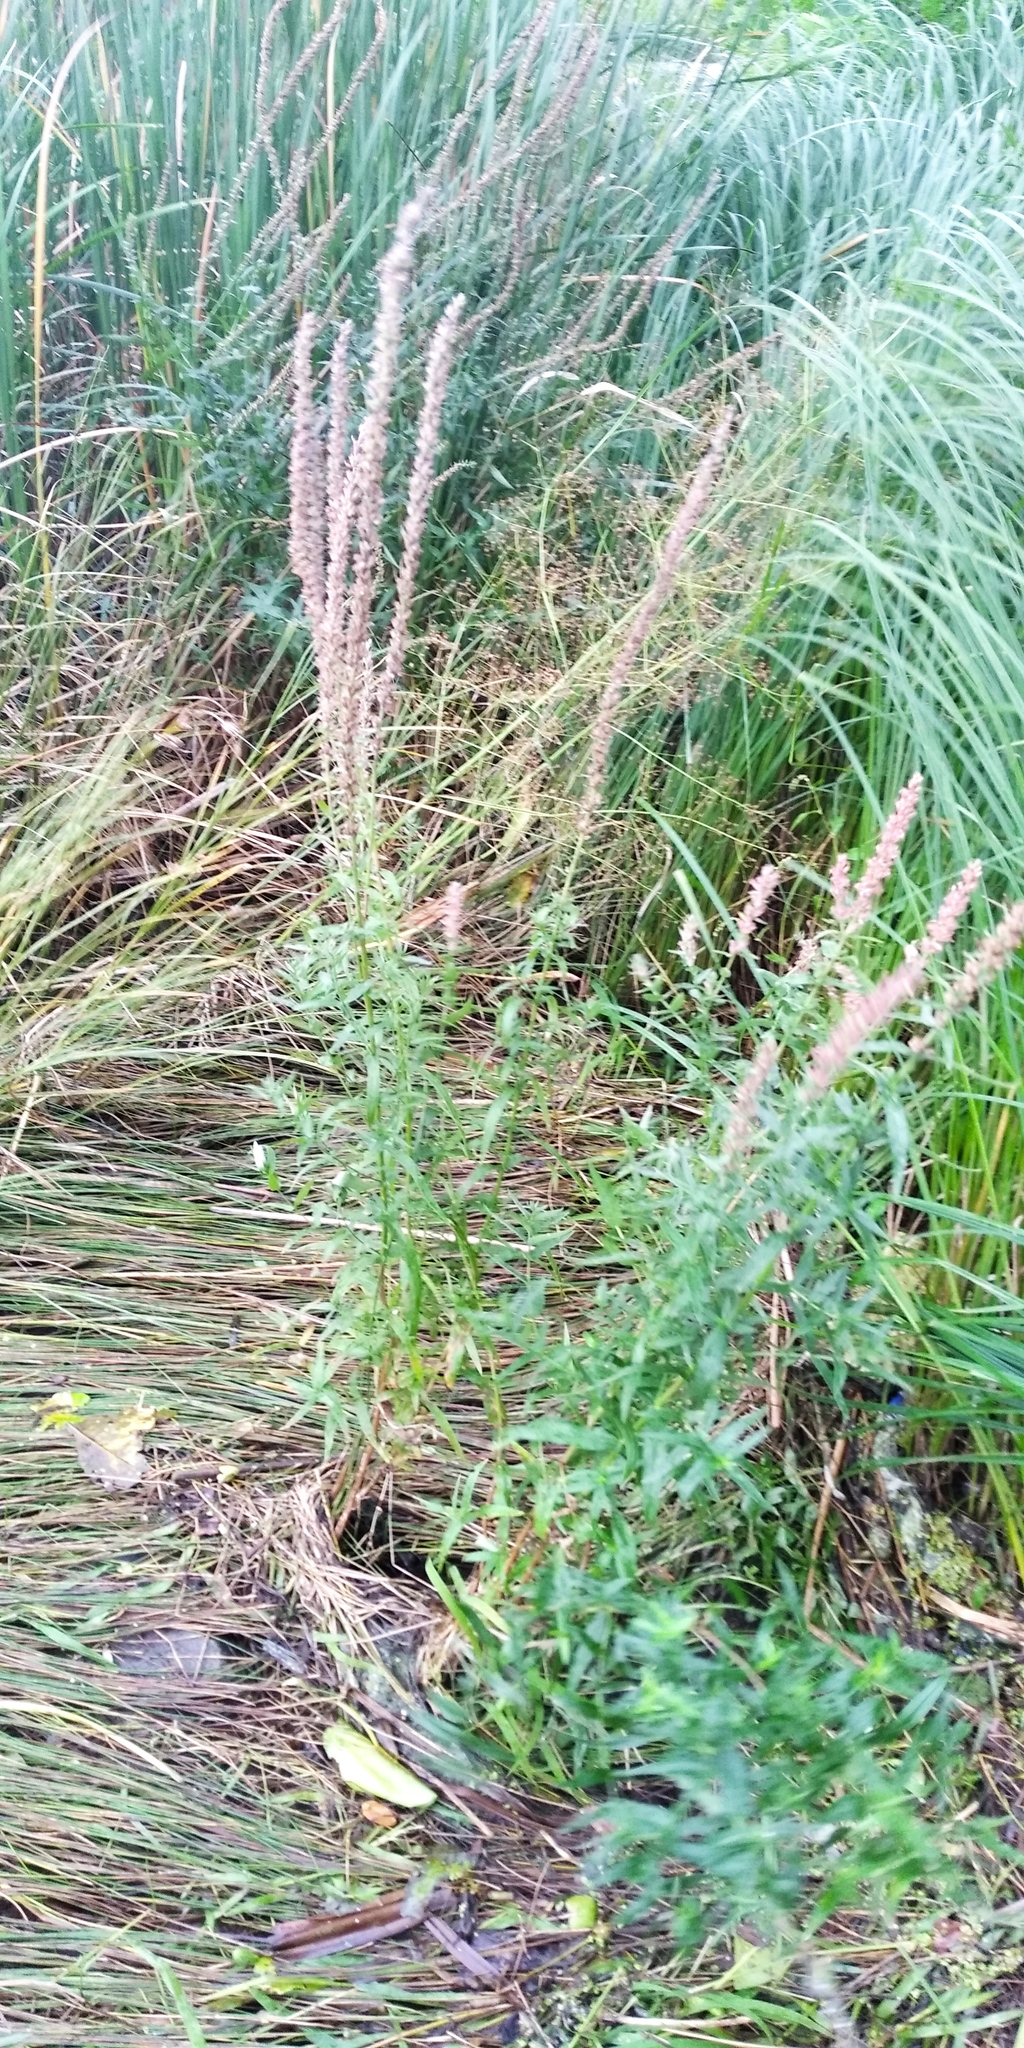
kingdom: Plantae
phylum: Tracheophyta
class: Magnoliopsida
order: Myrtales
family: Lythraceae
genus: Lythrum
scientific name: Lythrum salicaria
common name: Purple loosestrife
